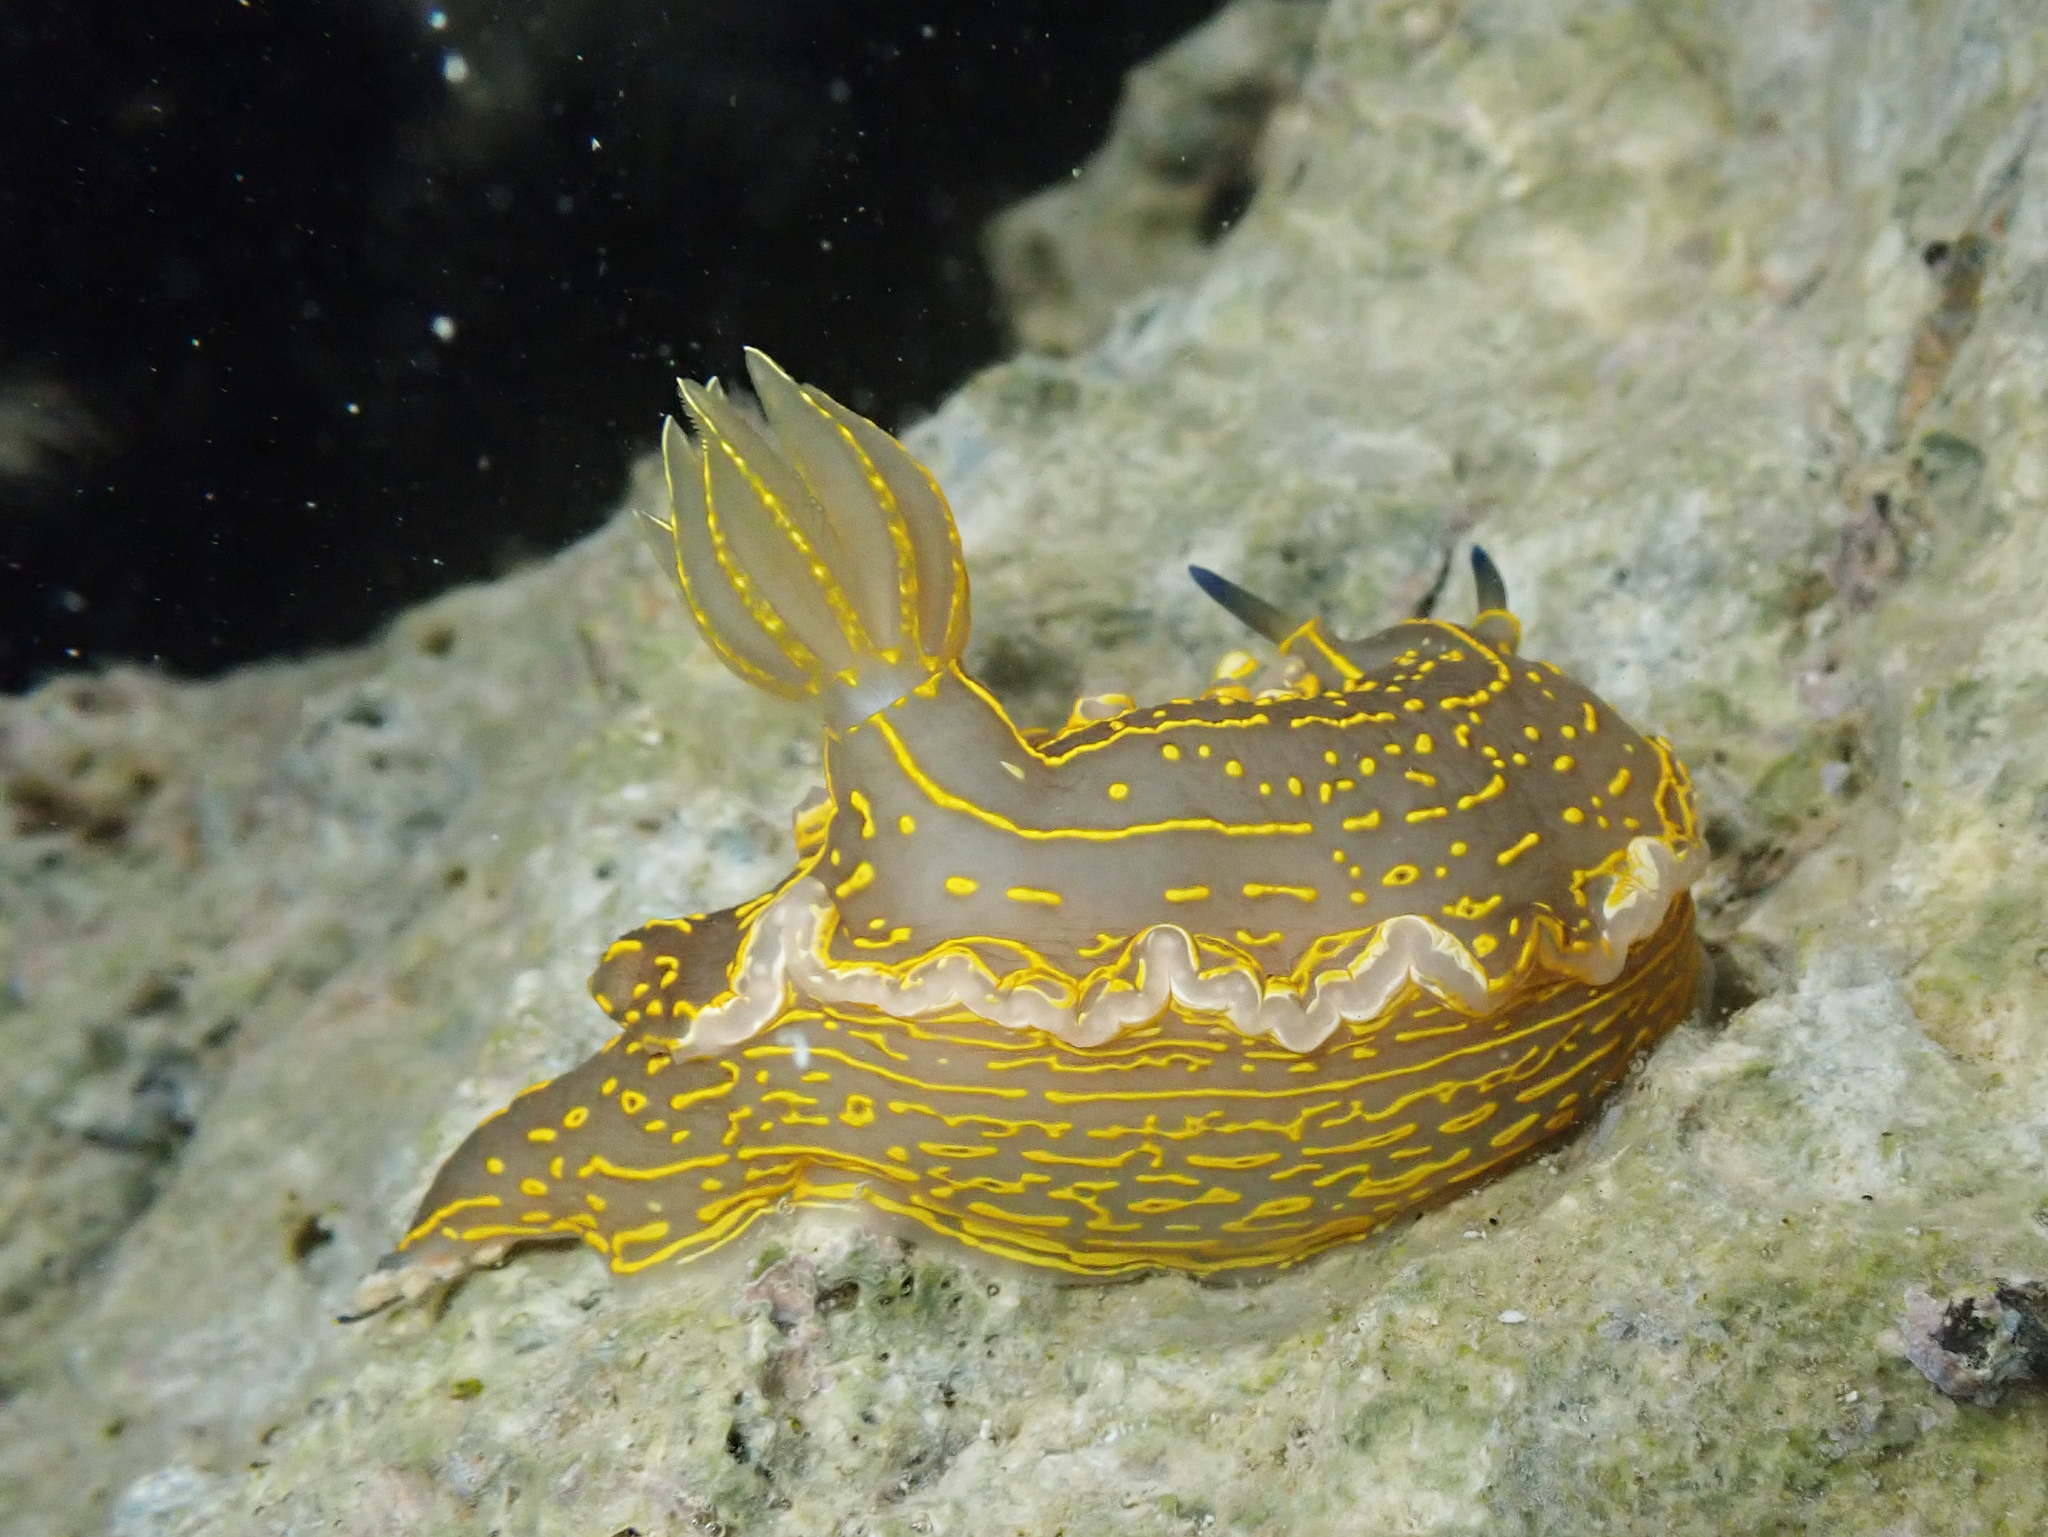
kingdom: Animalia
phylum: Mollusca
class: Gastropoda
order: Nudibranchia
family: Chromodorididae
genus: Felimare
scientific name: Felimare picta
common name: Giant doris
